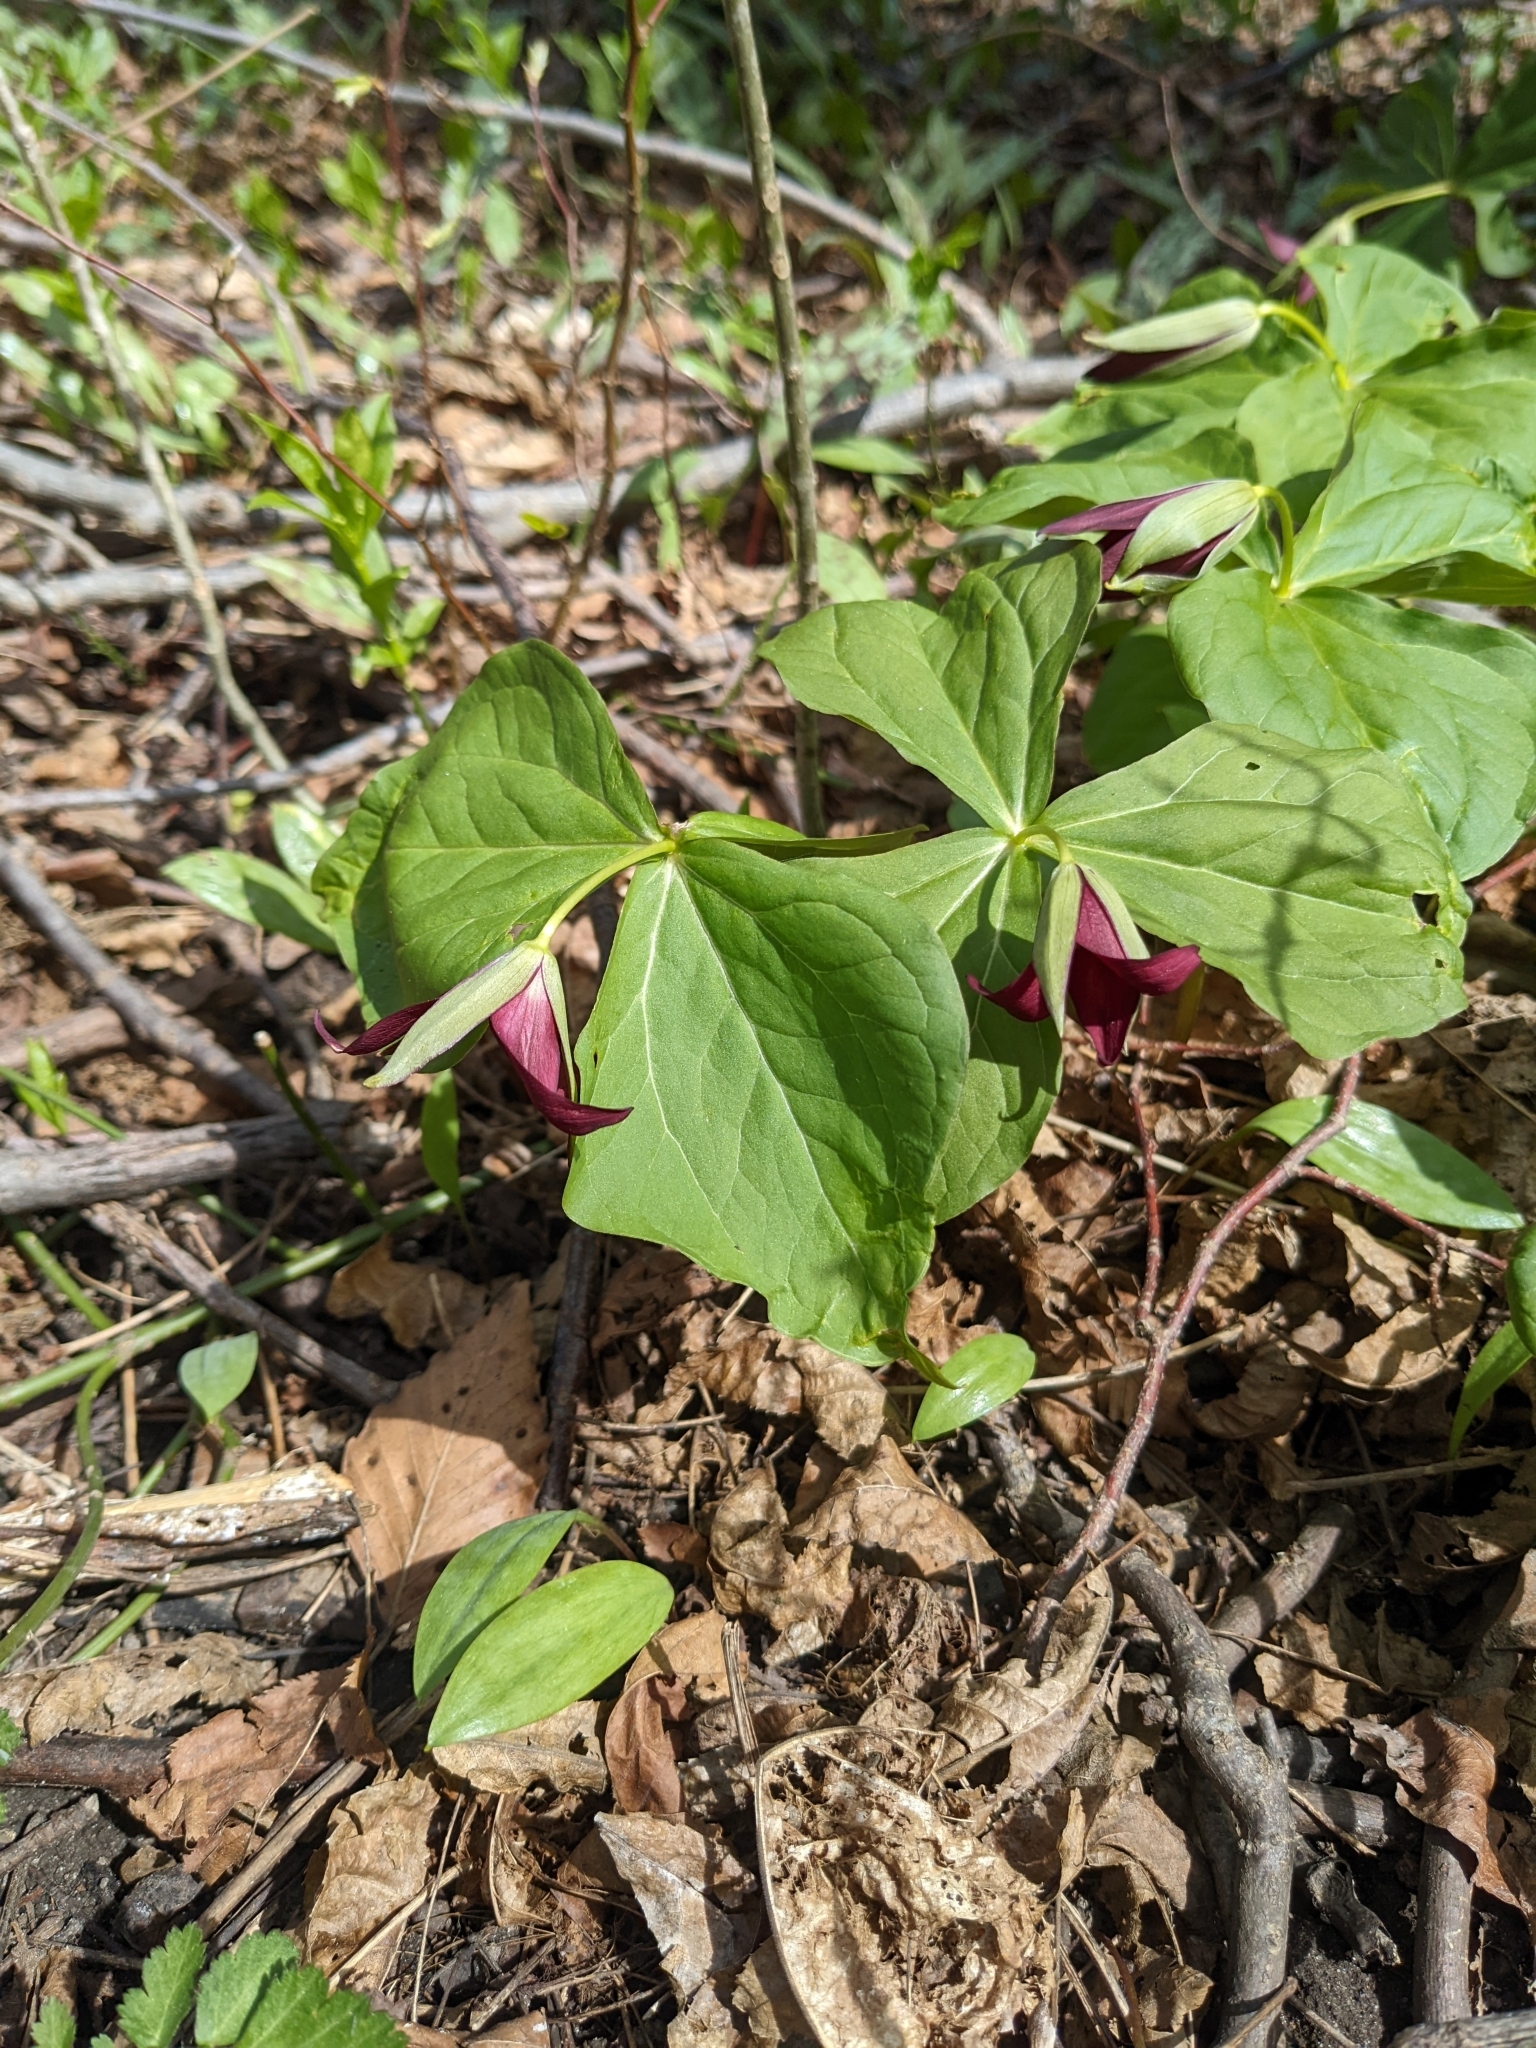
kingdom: Plantae
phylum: Tracheophyta
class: Liliopsida
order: Liliales
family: Melanthiaceae
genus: Trillium
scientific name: Trillium erectum
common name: Purple trillium
